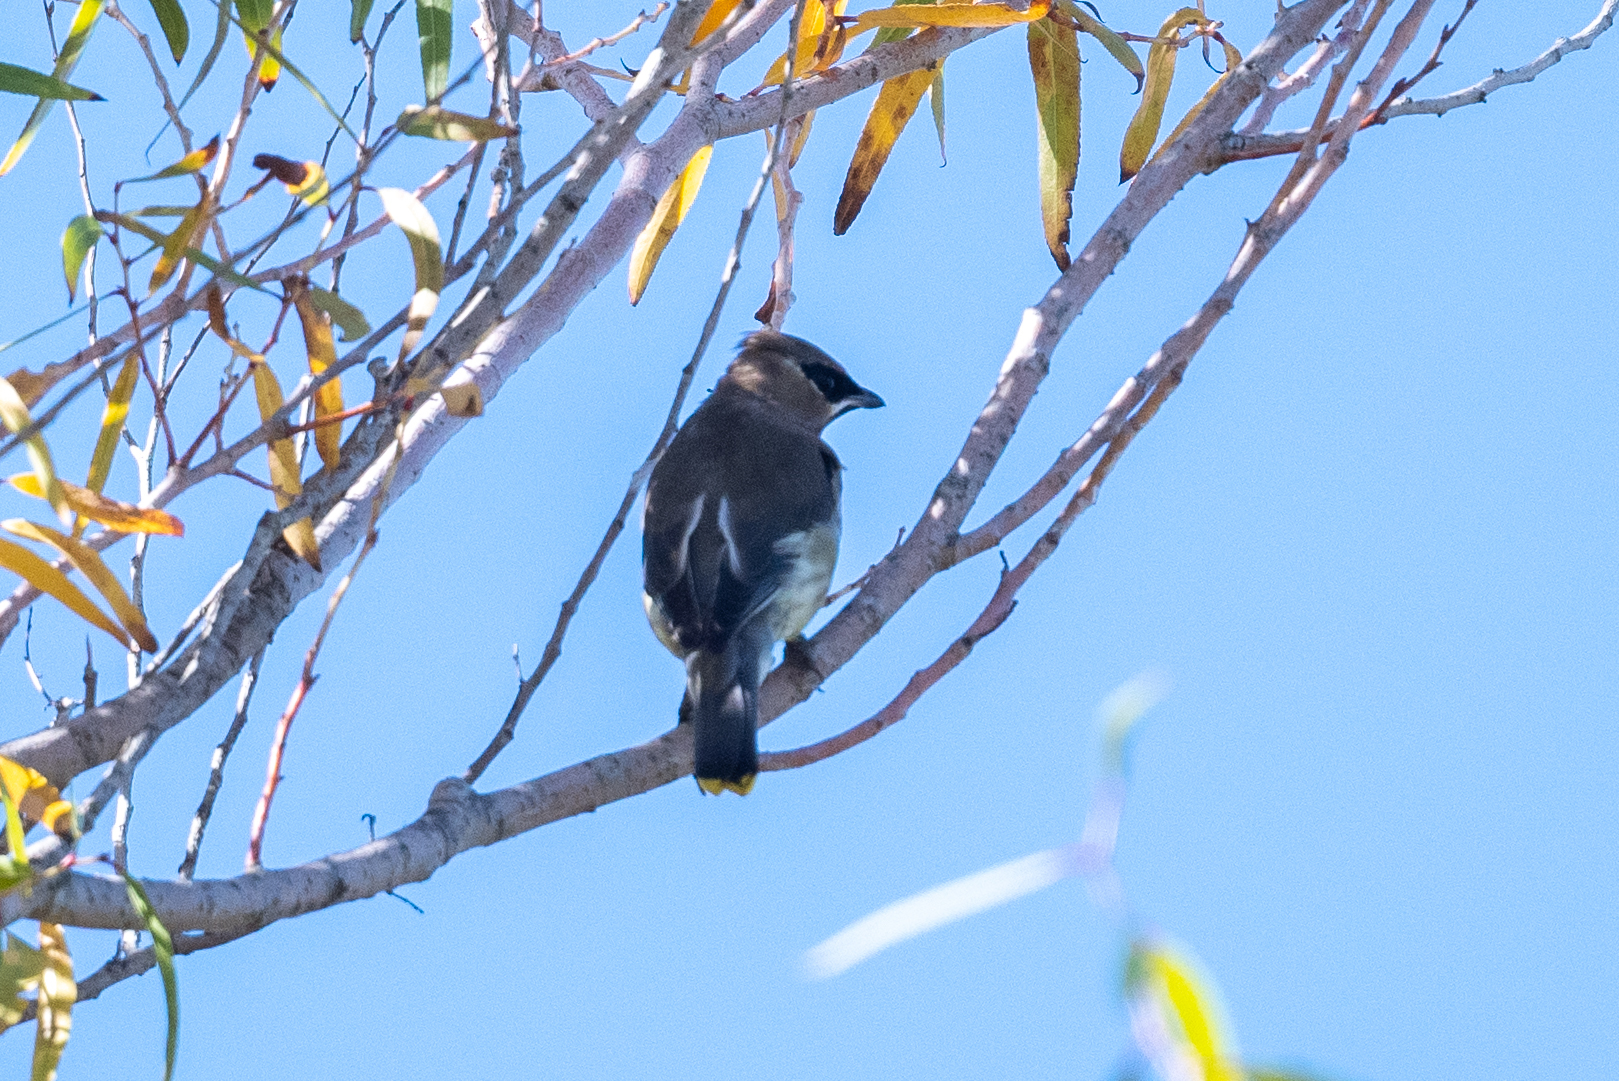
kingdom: Animalia
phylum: Chordata
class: Aves
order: Passeriformes
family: Bombycillidae
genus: Bombycilla
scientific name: Bombycilla cedrorum
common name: Cedar waxwing
